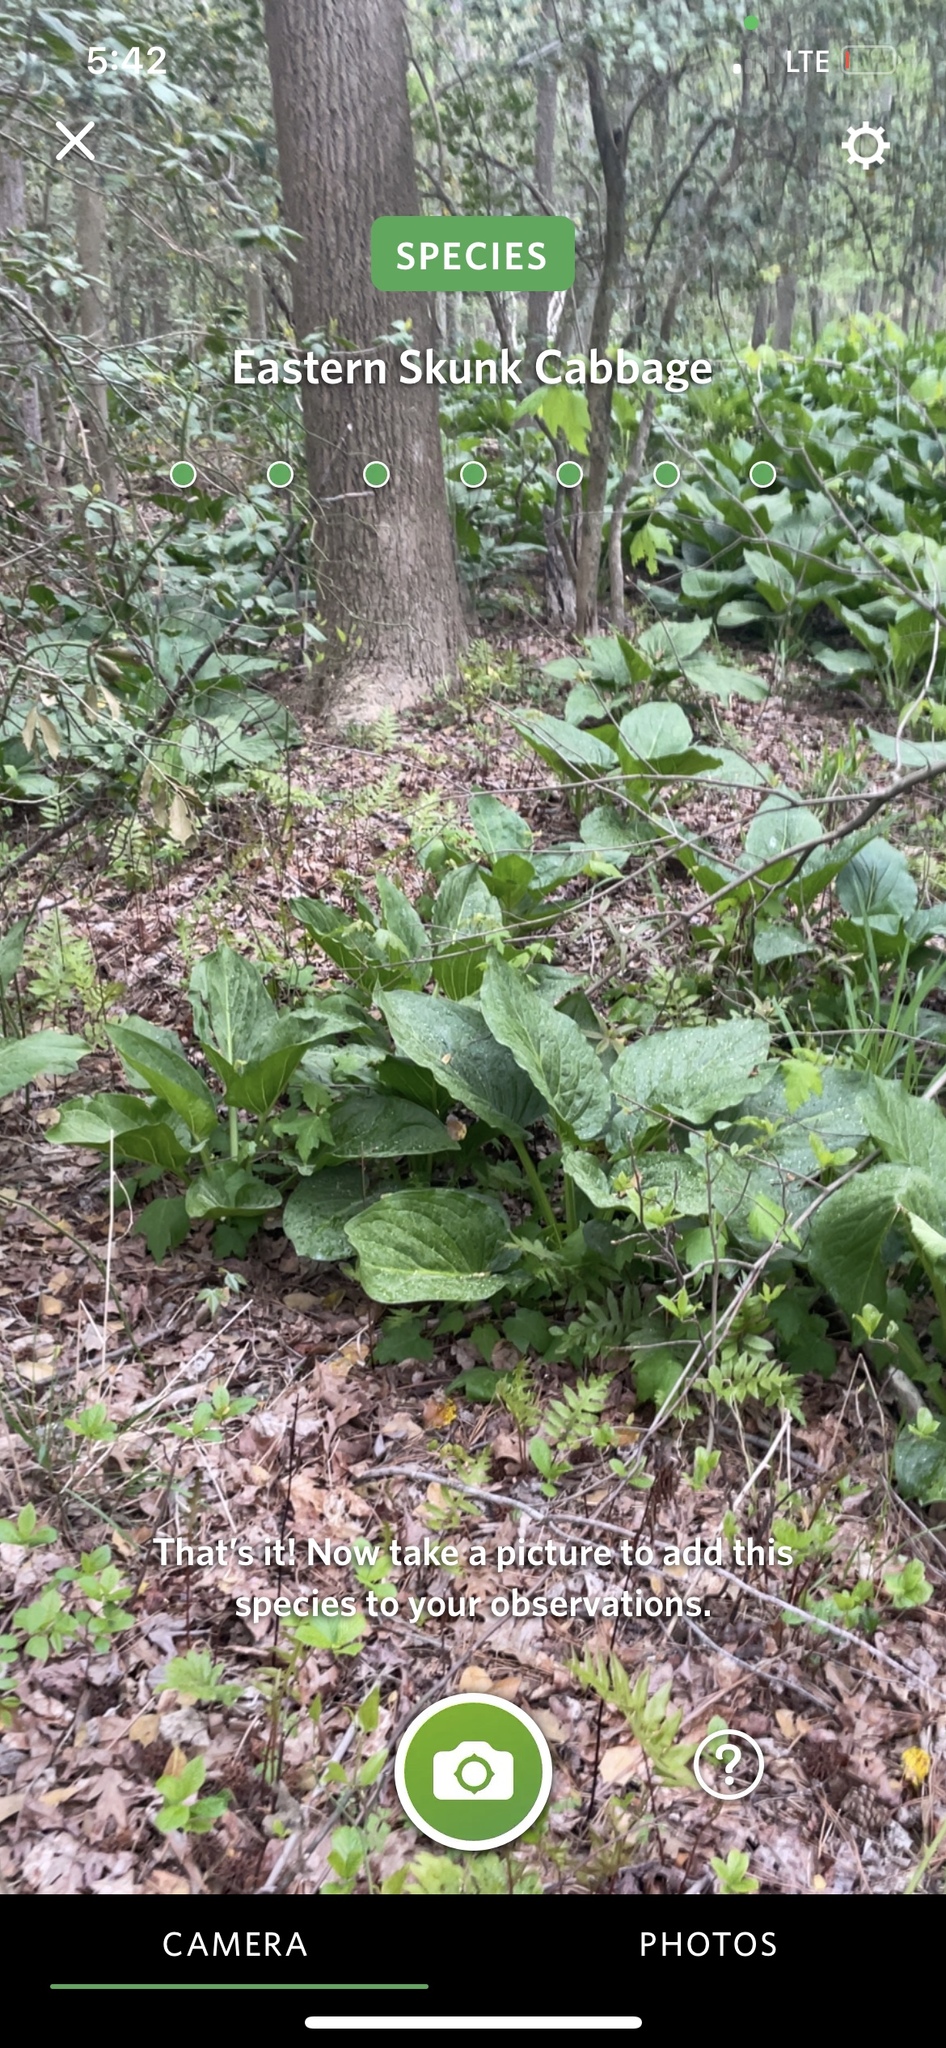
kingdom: Plantae
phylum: Tracheophyta
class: Liliopsida
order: Alismatales
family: Araceae
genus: Symplocarpus
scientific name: Symplocarpus foetidus
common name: Eastern skunk cabbage
